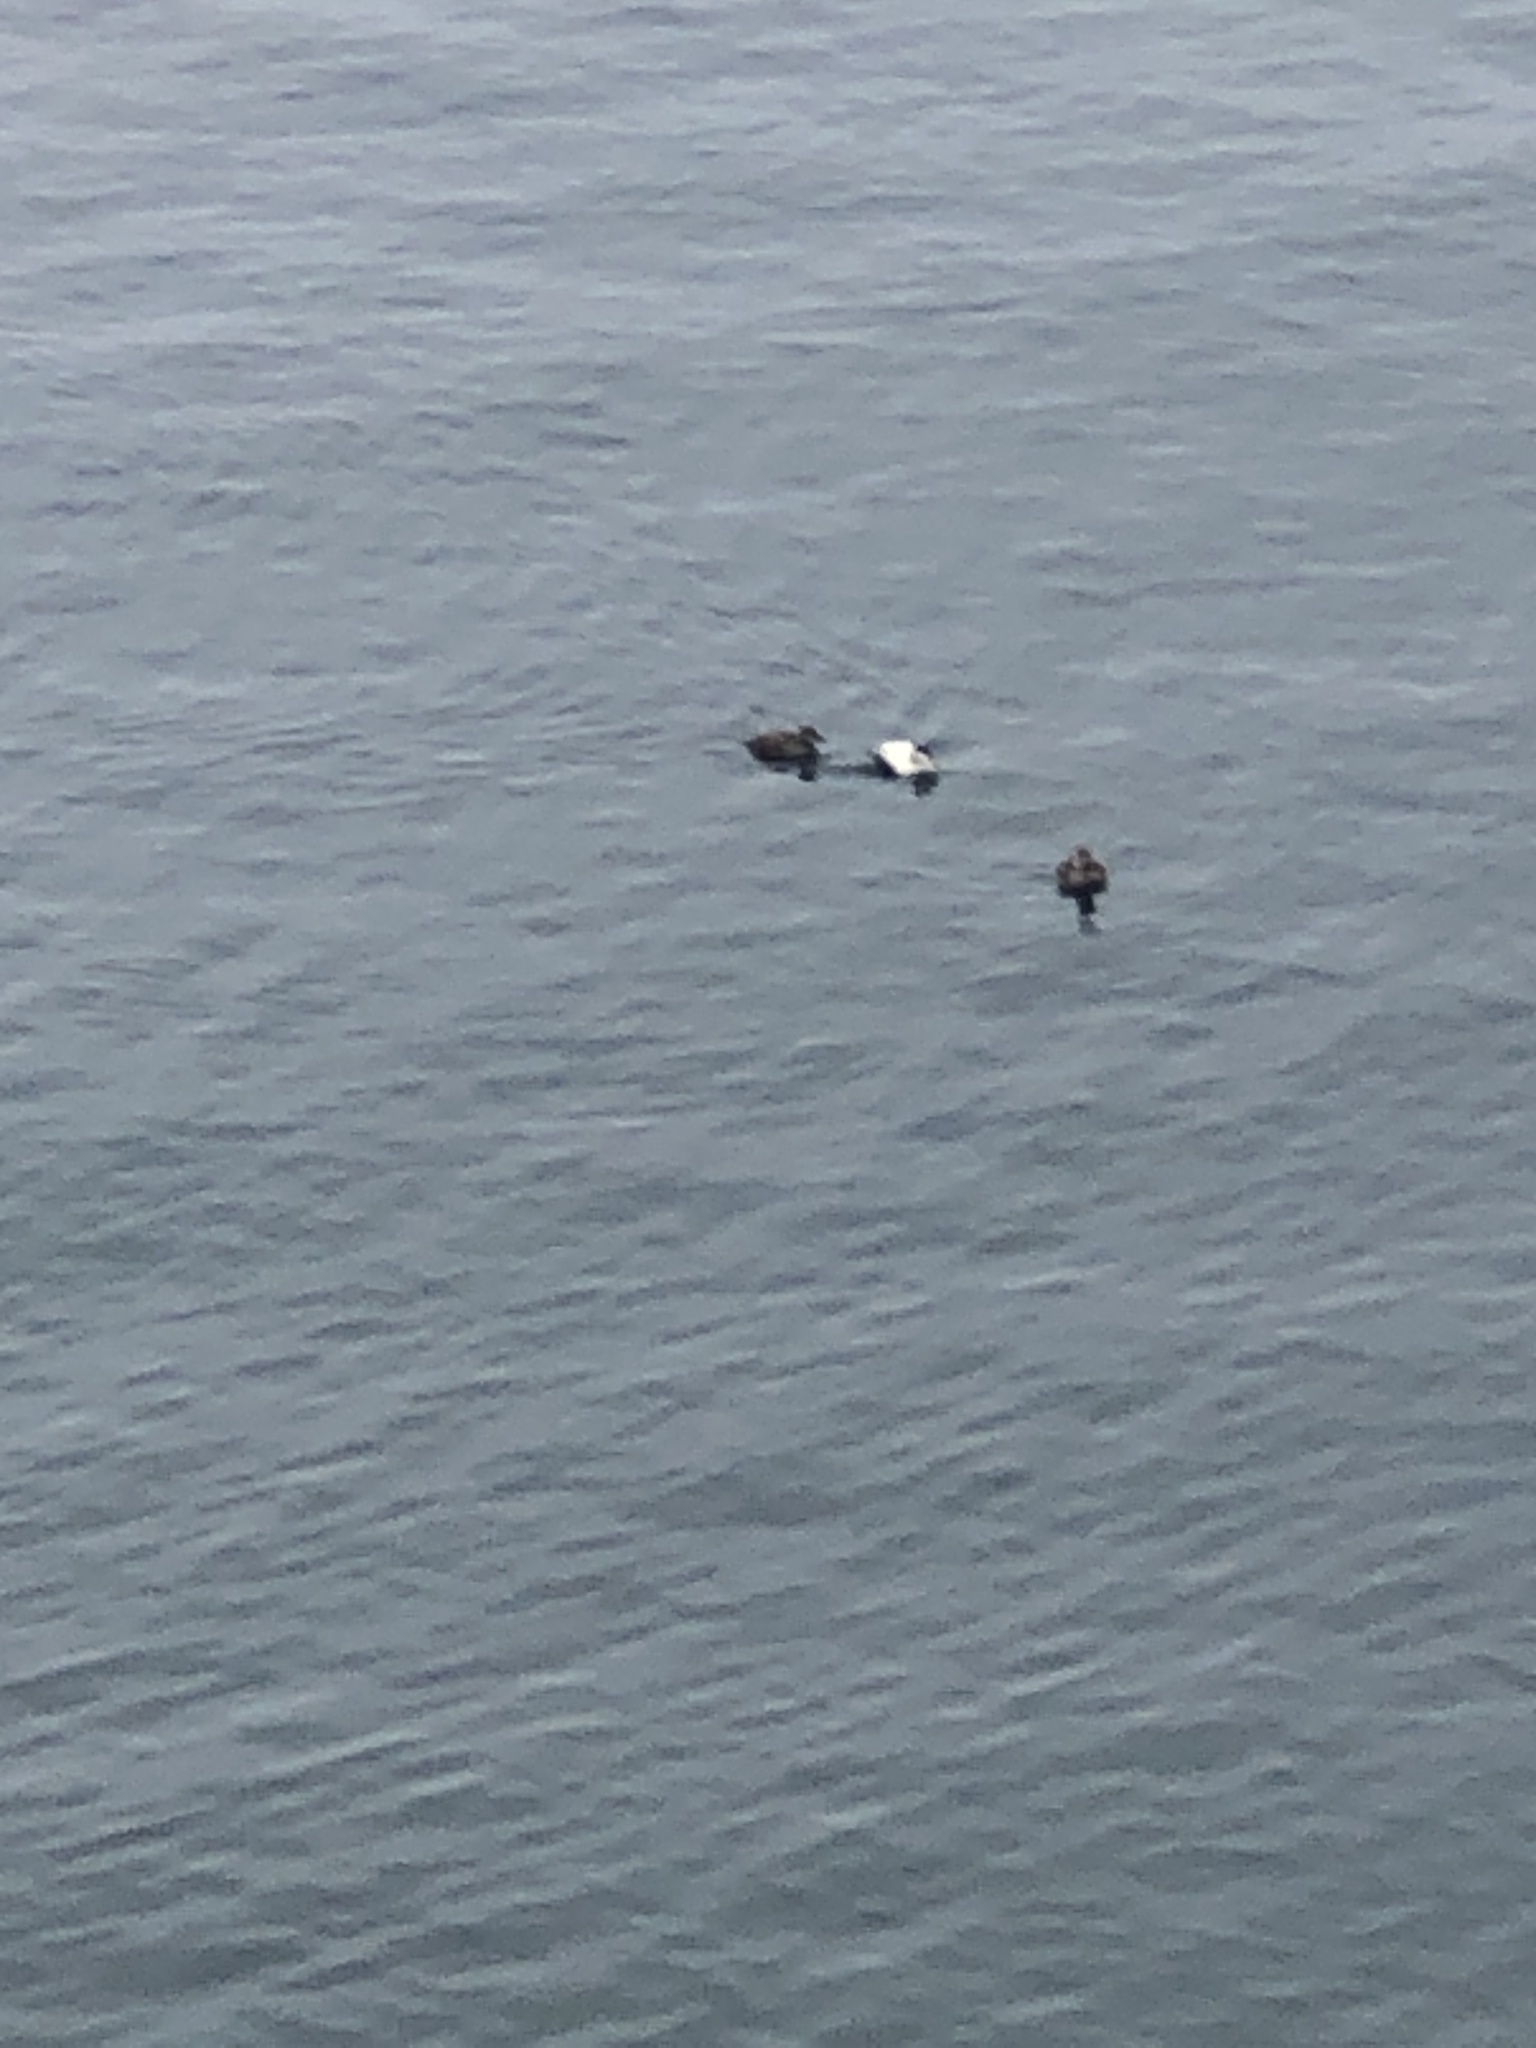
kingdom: Animalia
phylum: Chordata
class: Aves
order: Anseriformes
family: Anatidae
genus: Somateria
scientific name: Somateria mollissima
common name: Common eider
